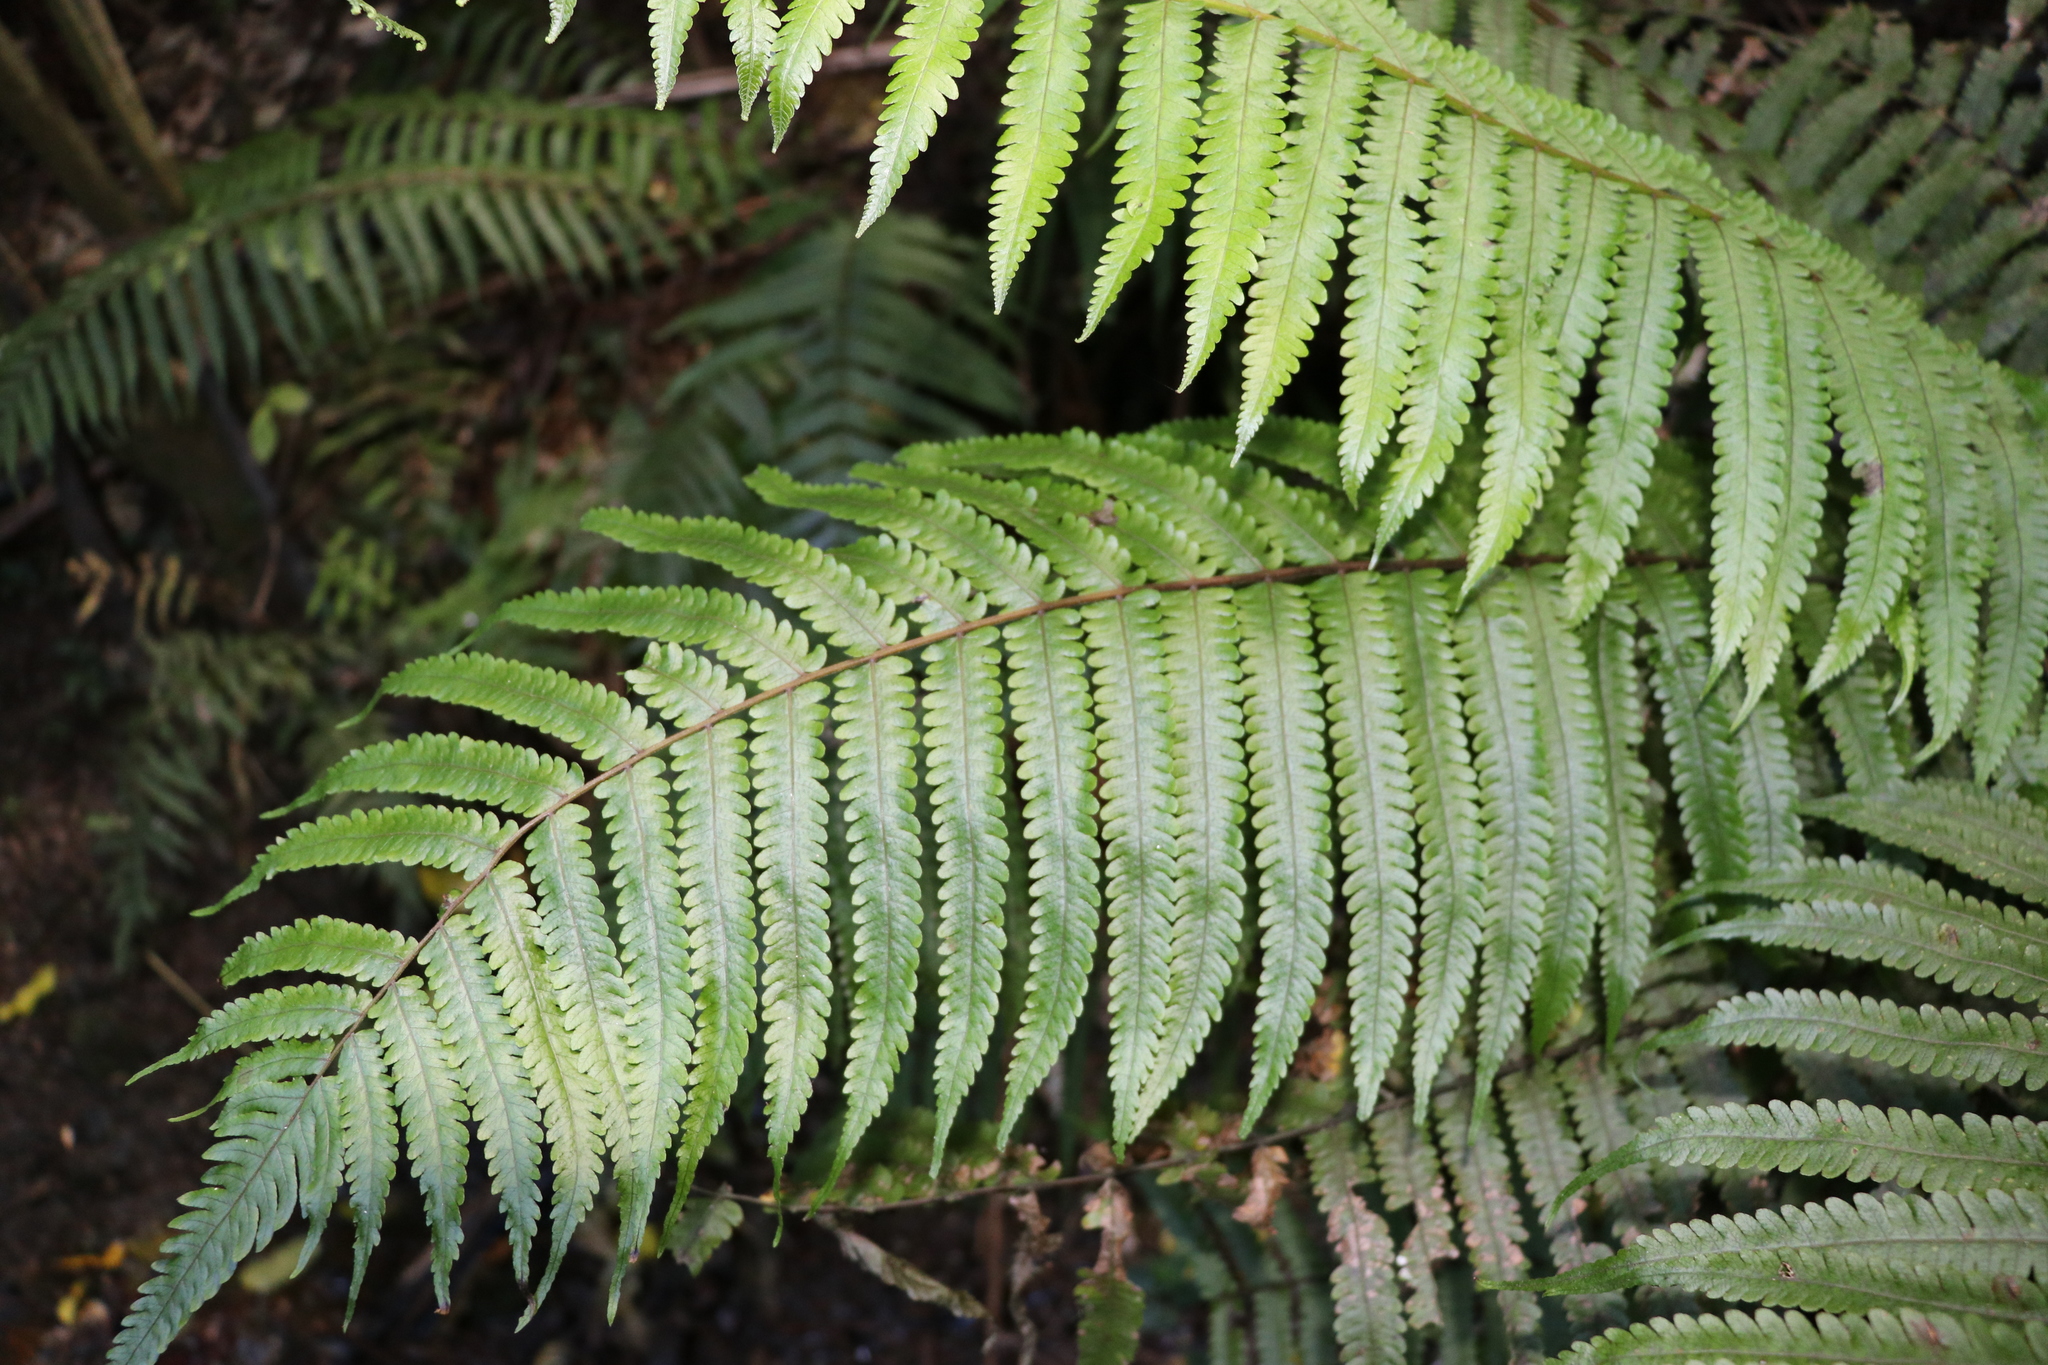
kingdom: Plantae
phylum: Tracheophyta
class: Polypodiopsida
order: Polypodiales
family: Thelypteridaceae
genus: Pakau
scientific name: Pakau pennigera
